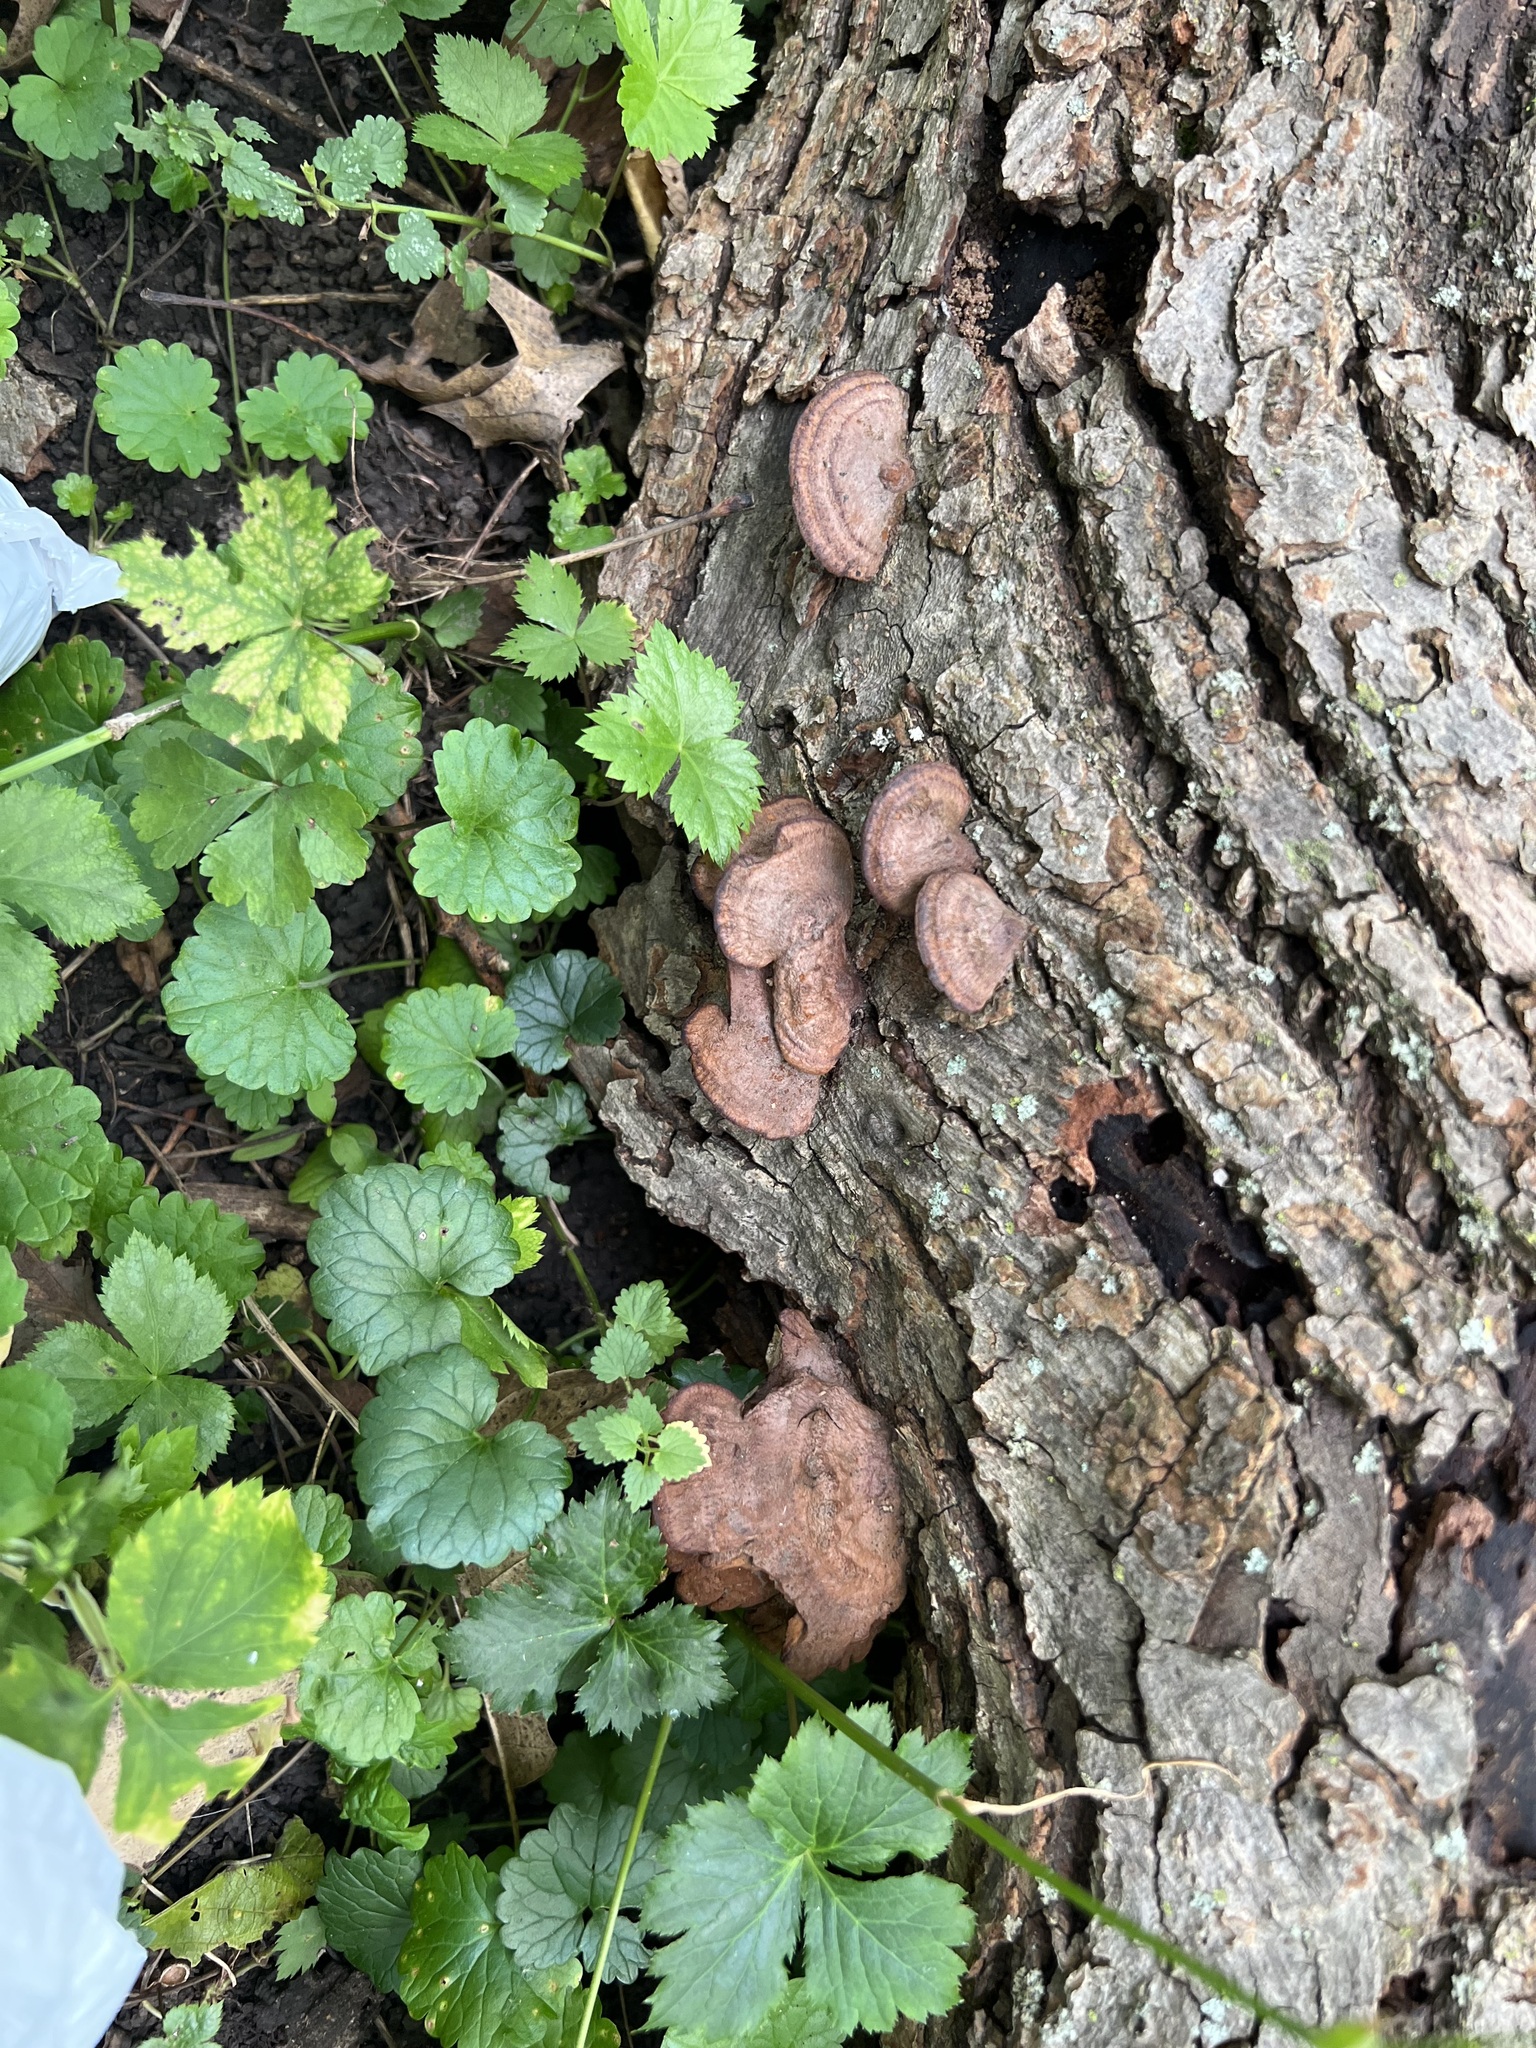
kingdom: Fungi
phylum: Basidiomycota
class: Agaricomycetes
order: Hymenochaetales
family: Hymenochaetaceae
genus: Phellinus
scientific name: Phellinus gilvus
